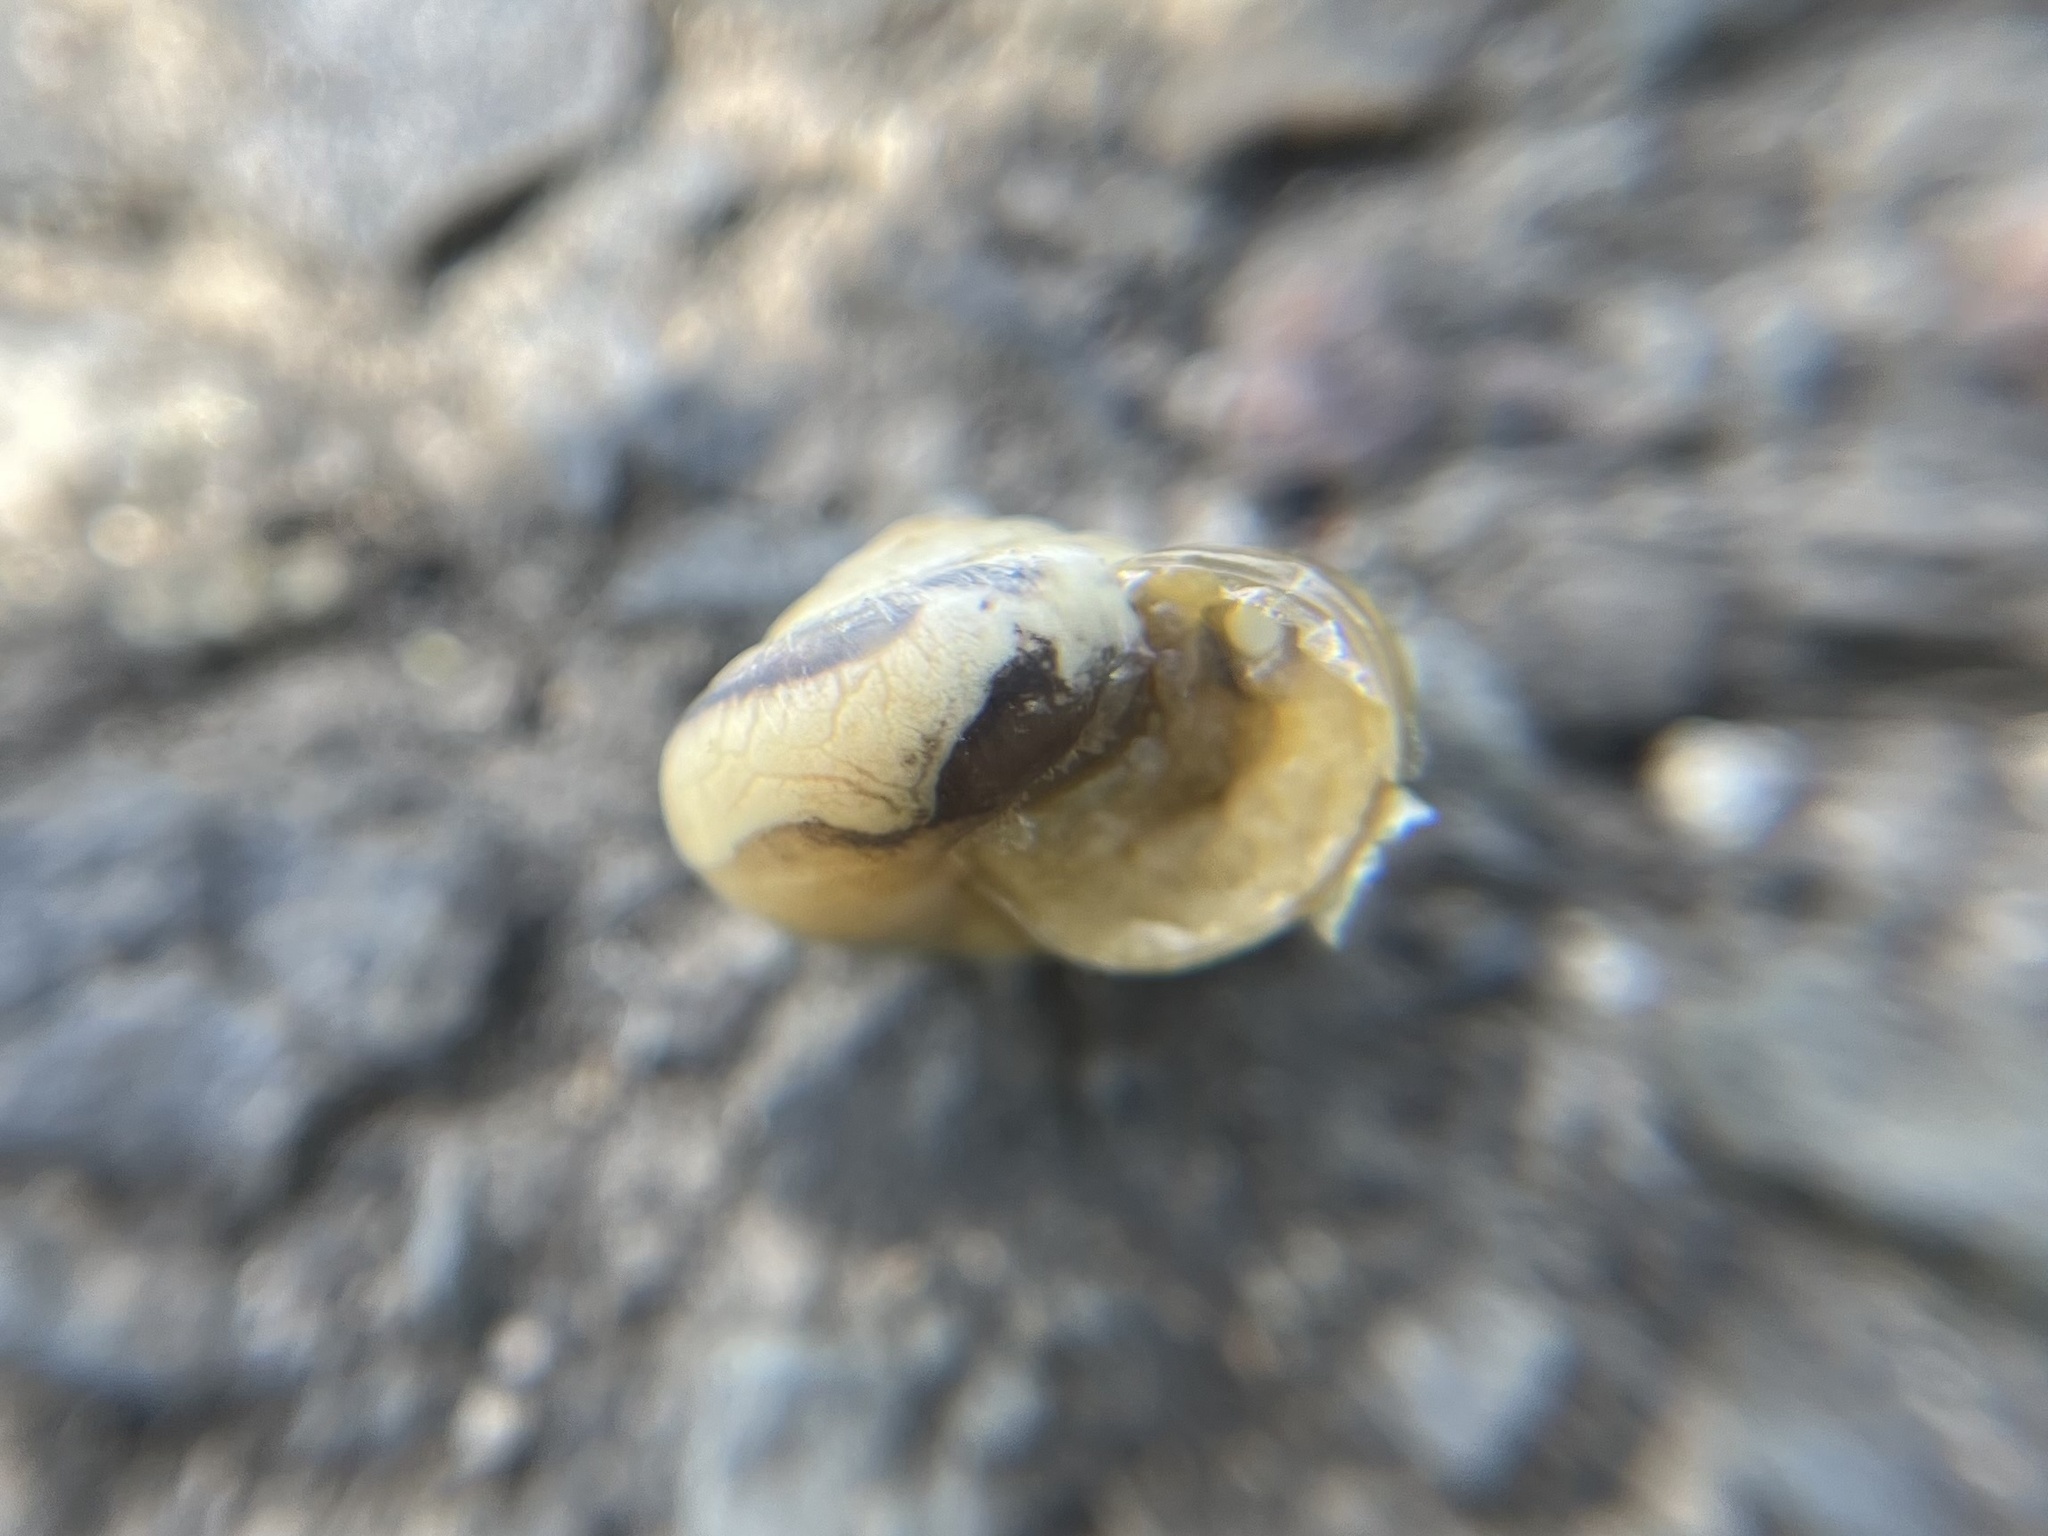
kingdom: Animalia
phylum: Mollusca
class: Gastropoda
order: Stylommatophora
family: Hygromiidae
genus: Monacha
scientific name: Monacha cartusiana
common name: Carthusian snail
